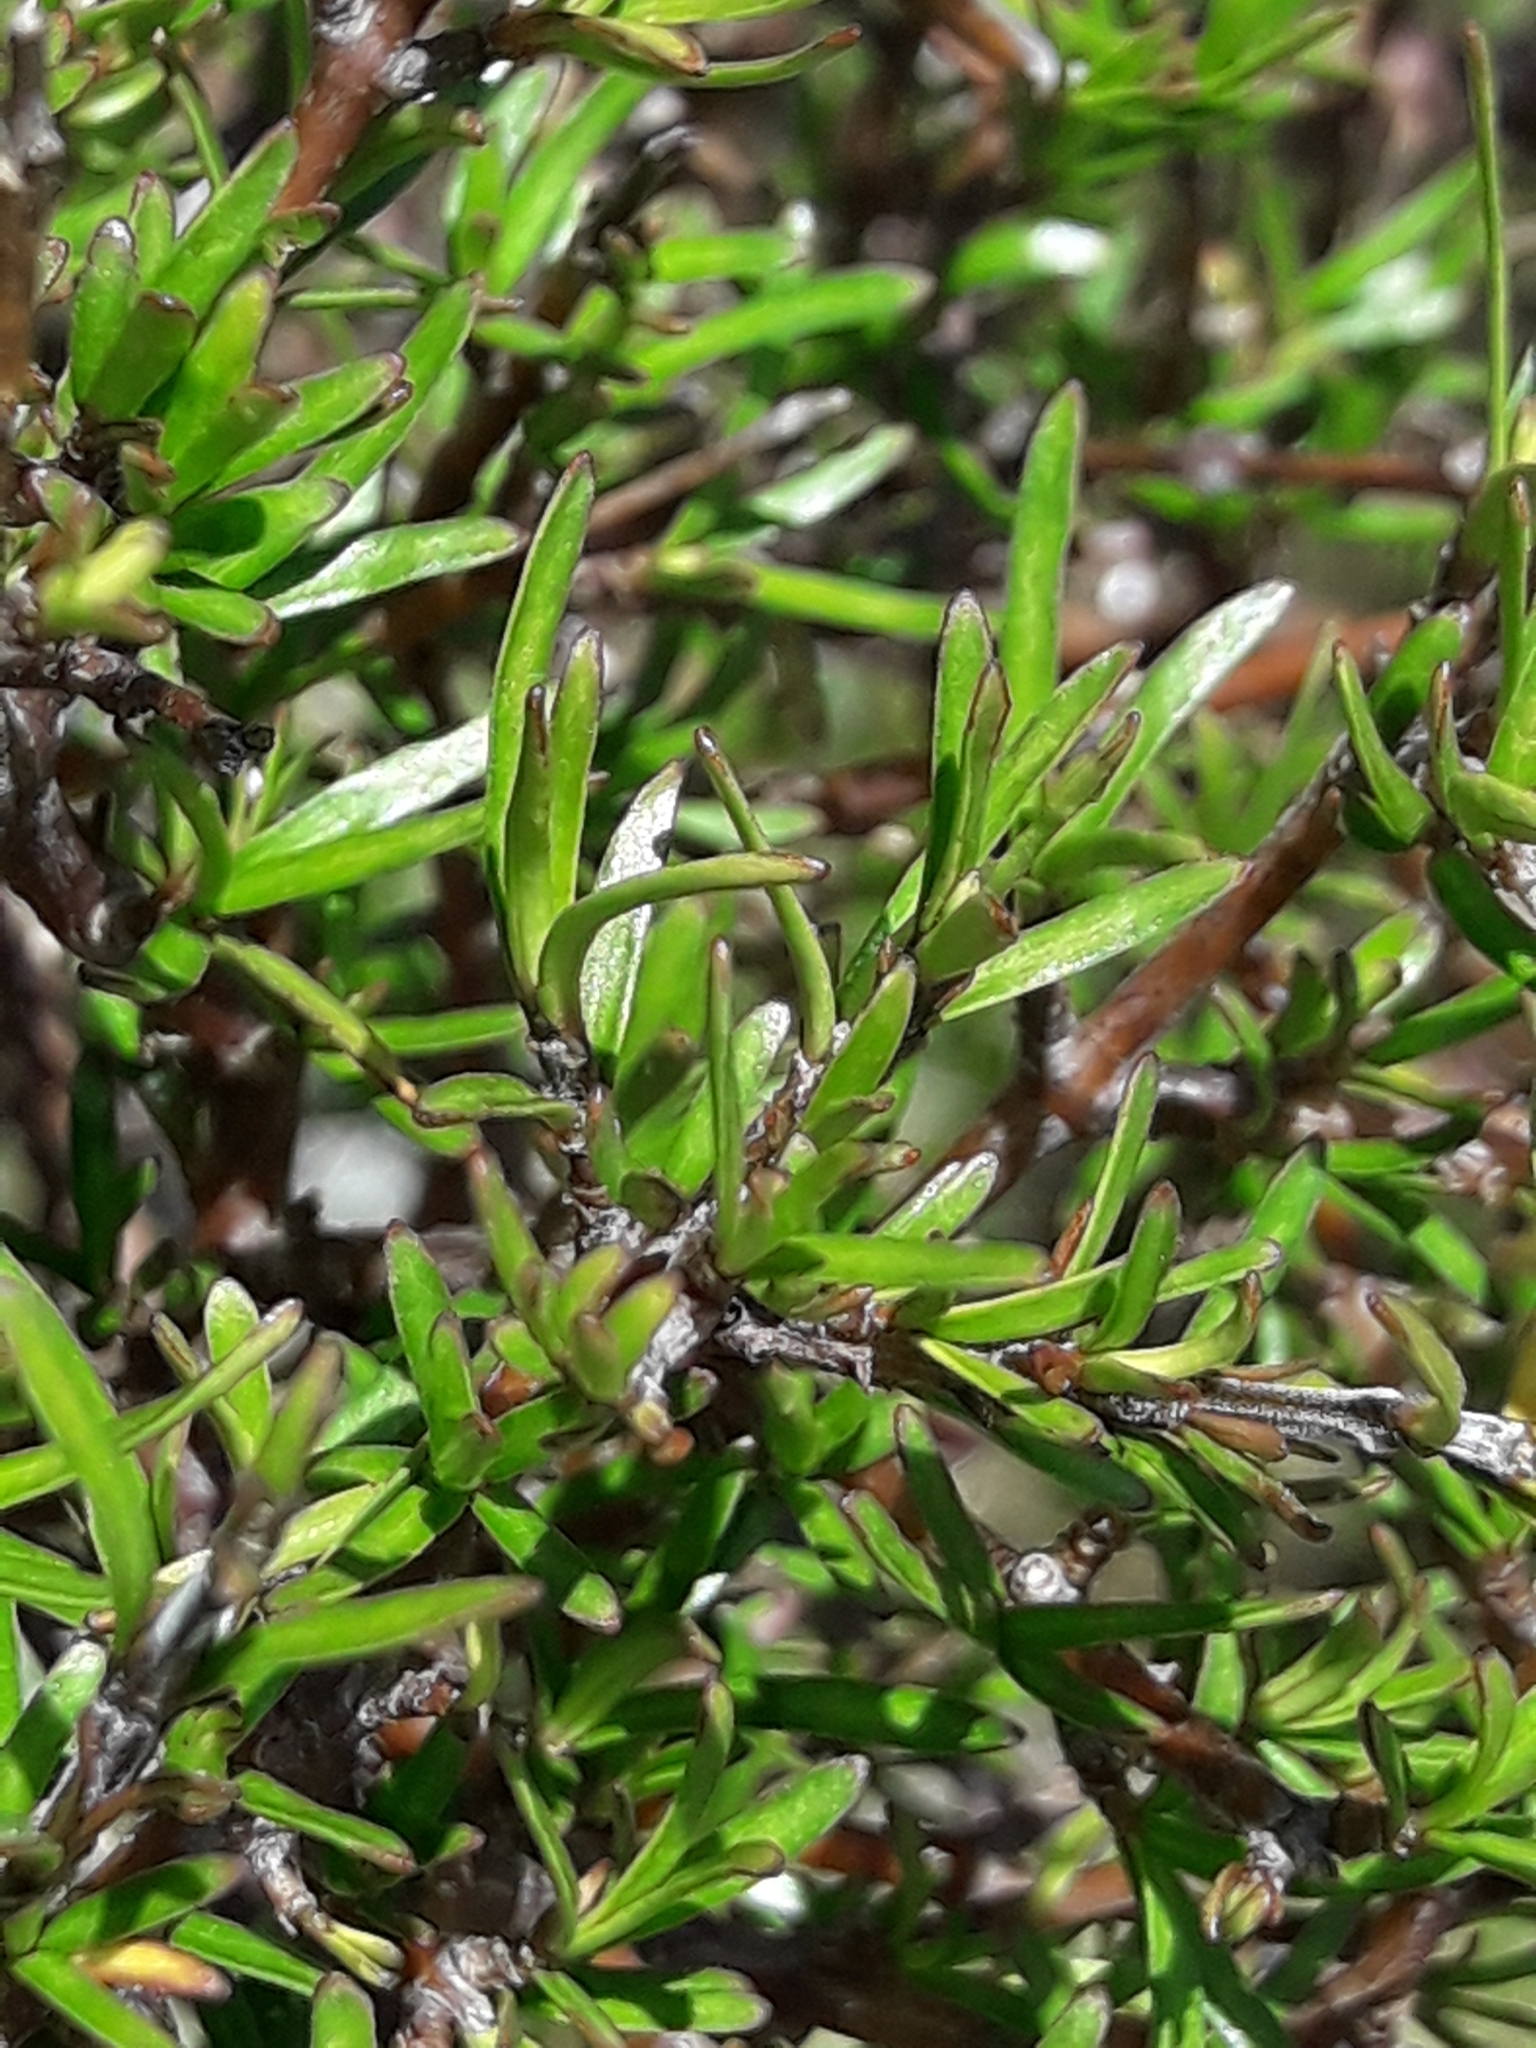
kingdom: Plantae
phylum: Tracheophyta
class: Magnoliopsida
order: Gentianales
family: Rubiaceae
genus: Coprosma
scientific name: Coprosma rugosa
